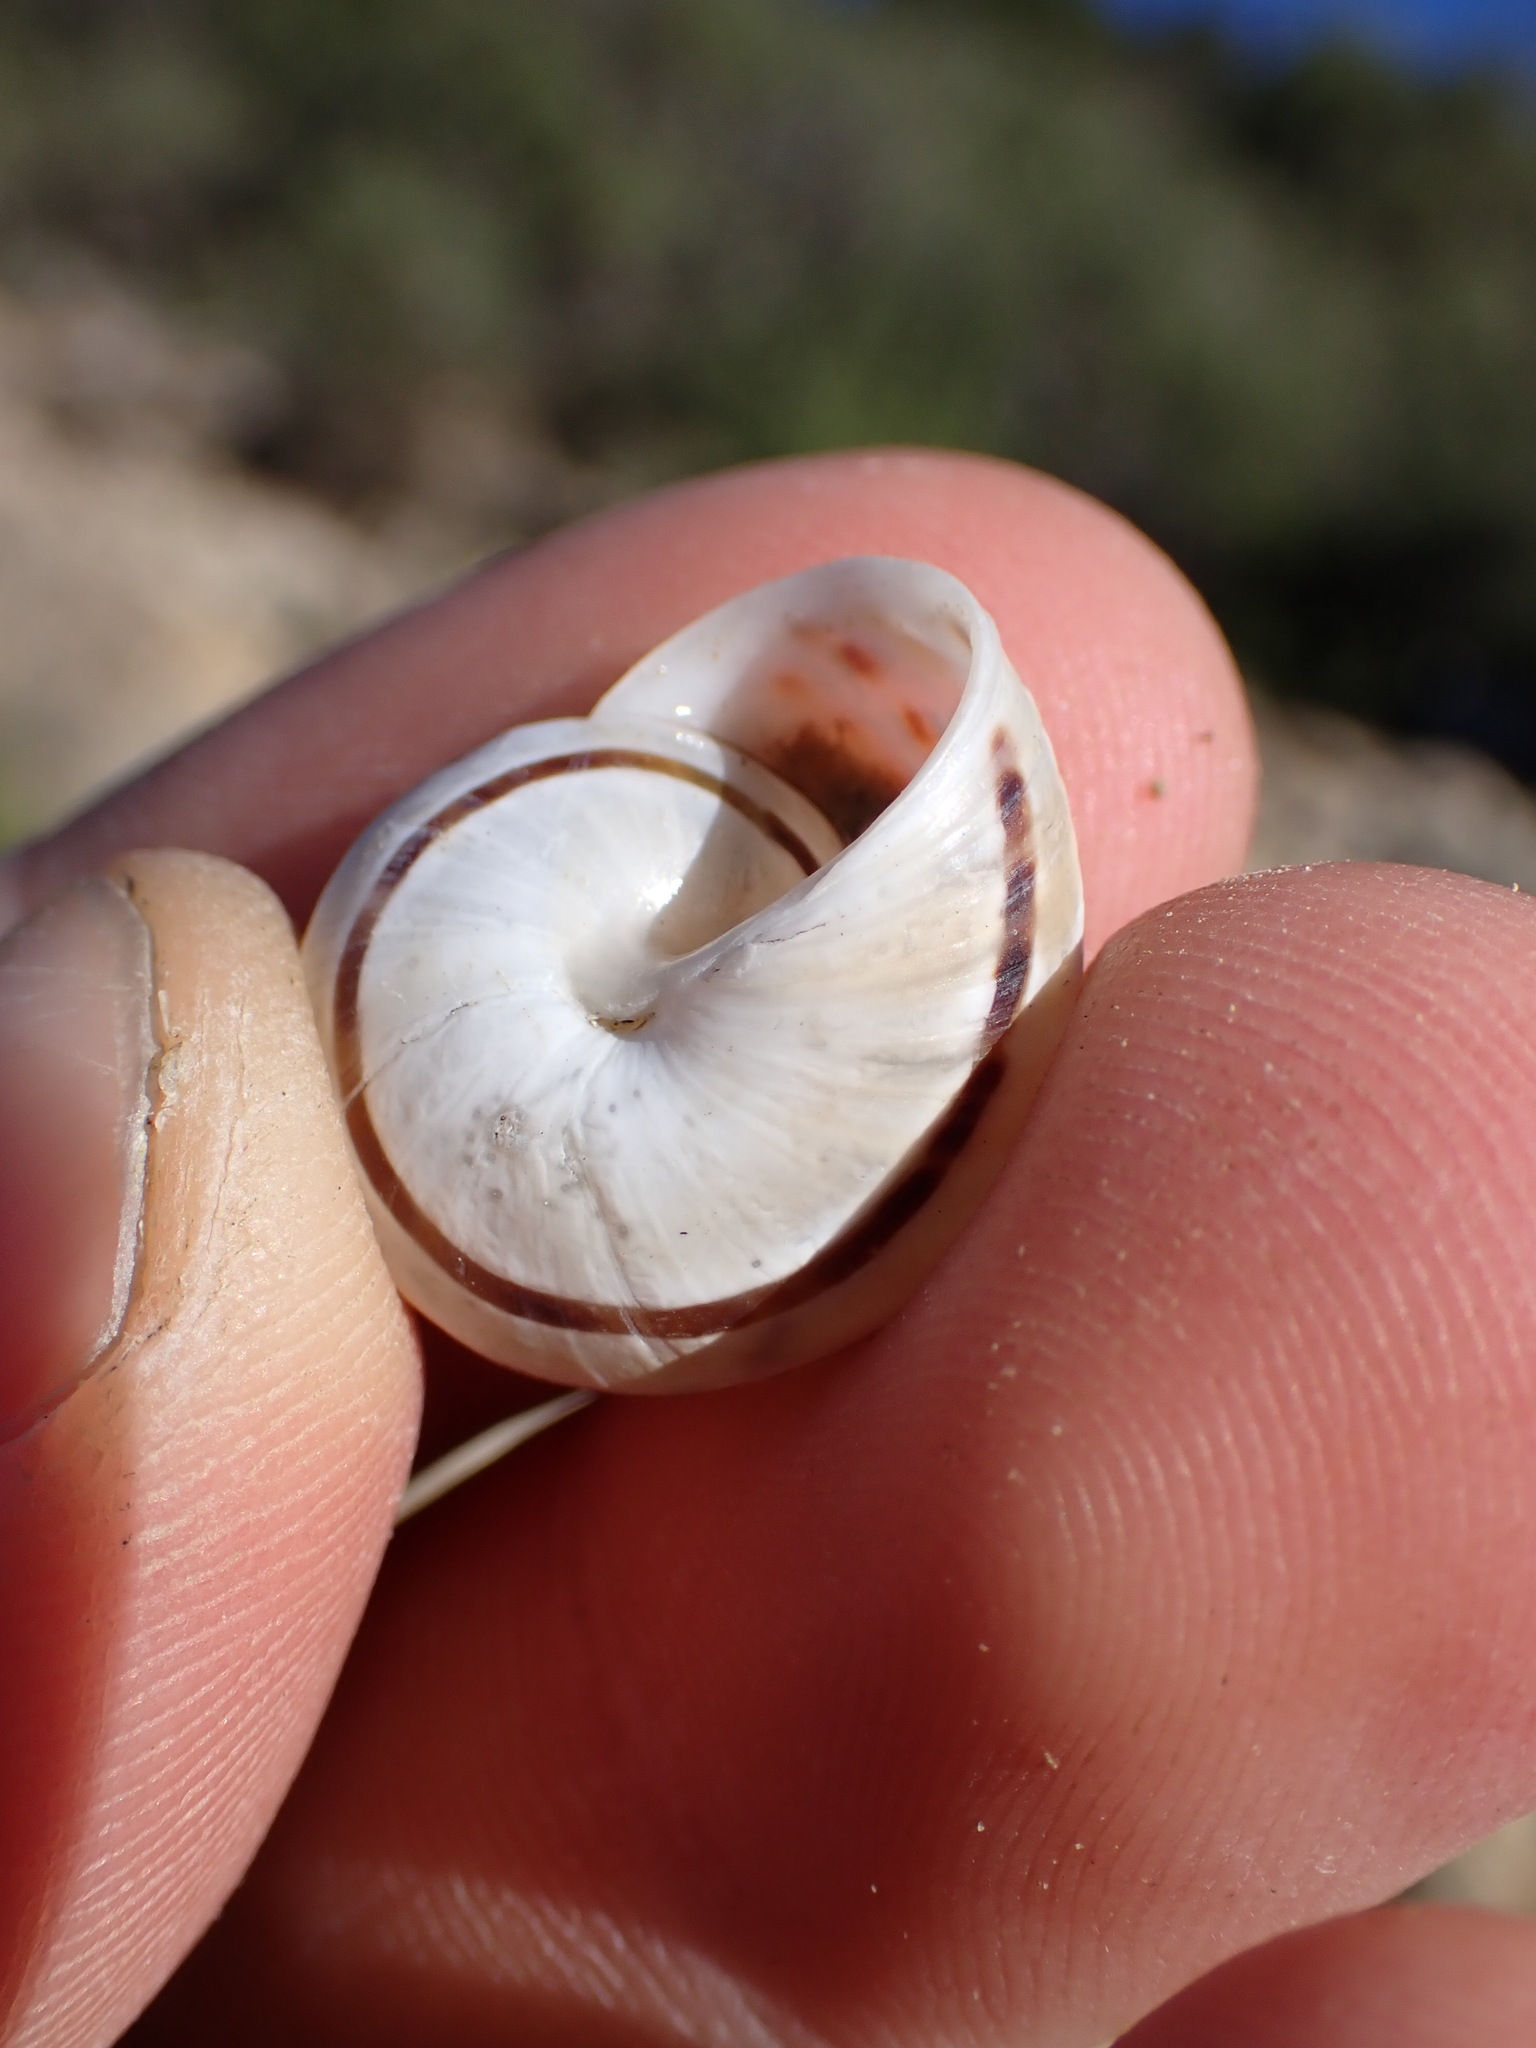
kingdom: Animalia
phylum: Mollusca
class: Gastropoda
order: Stylommatophora
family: Helicidae
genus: Pseudotachea
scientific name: Pseudotachea splendida
